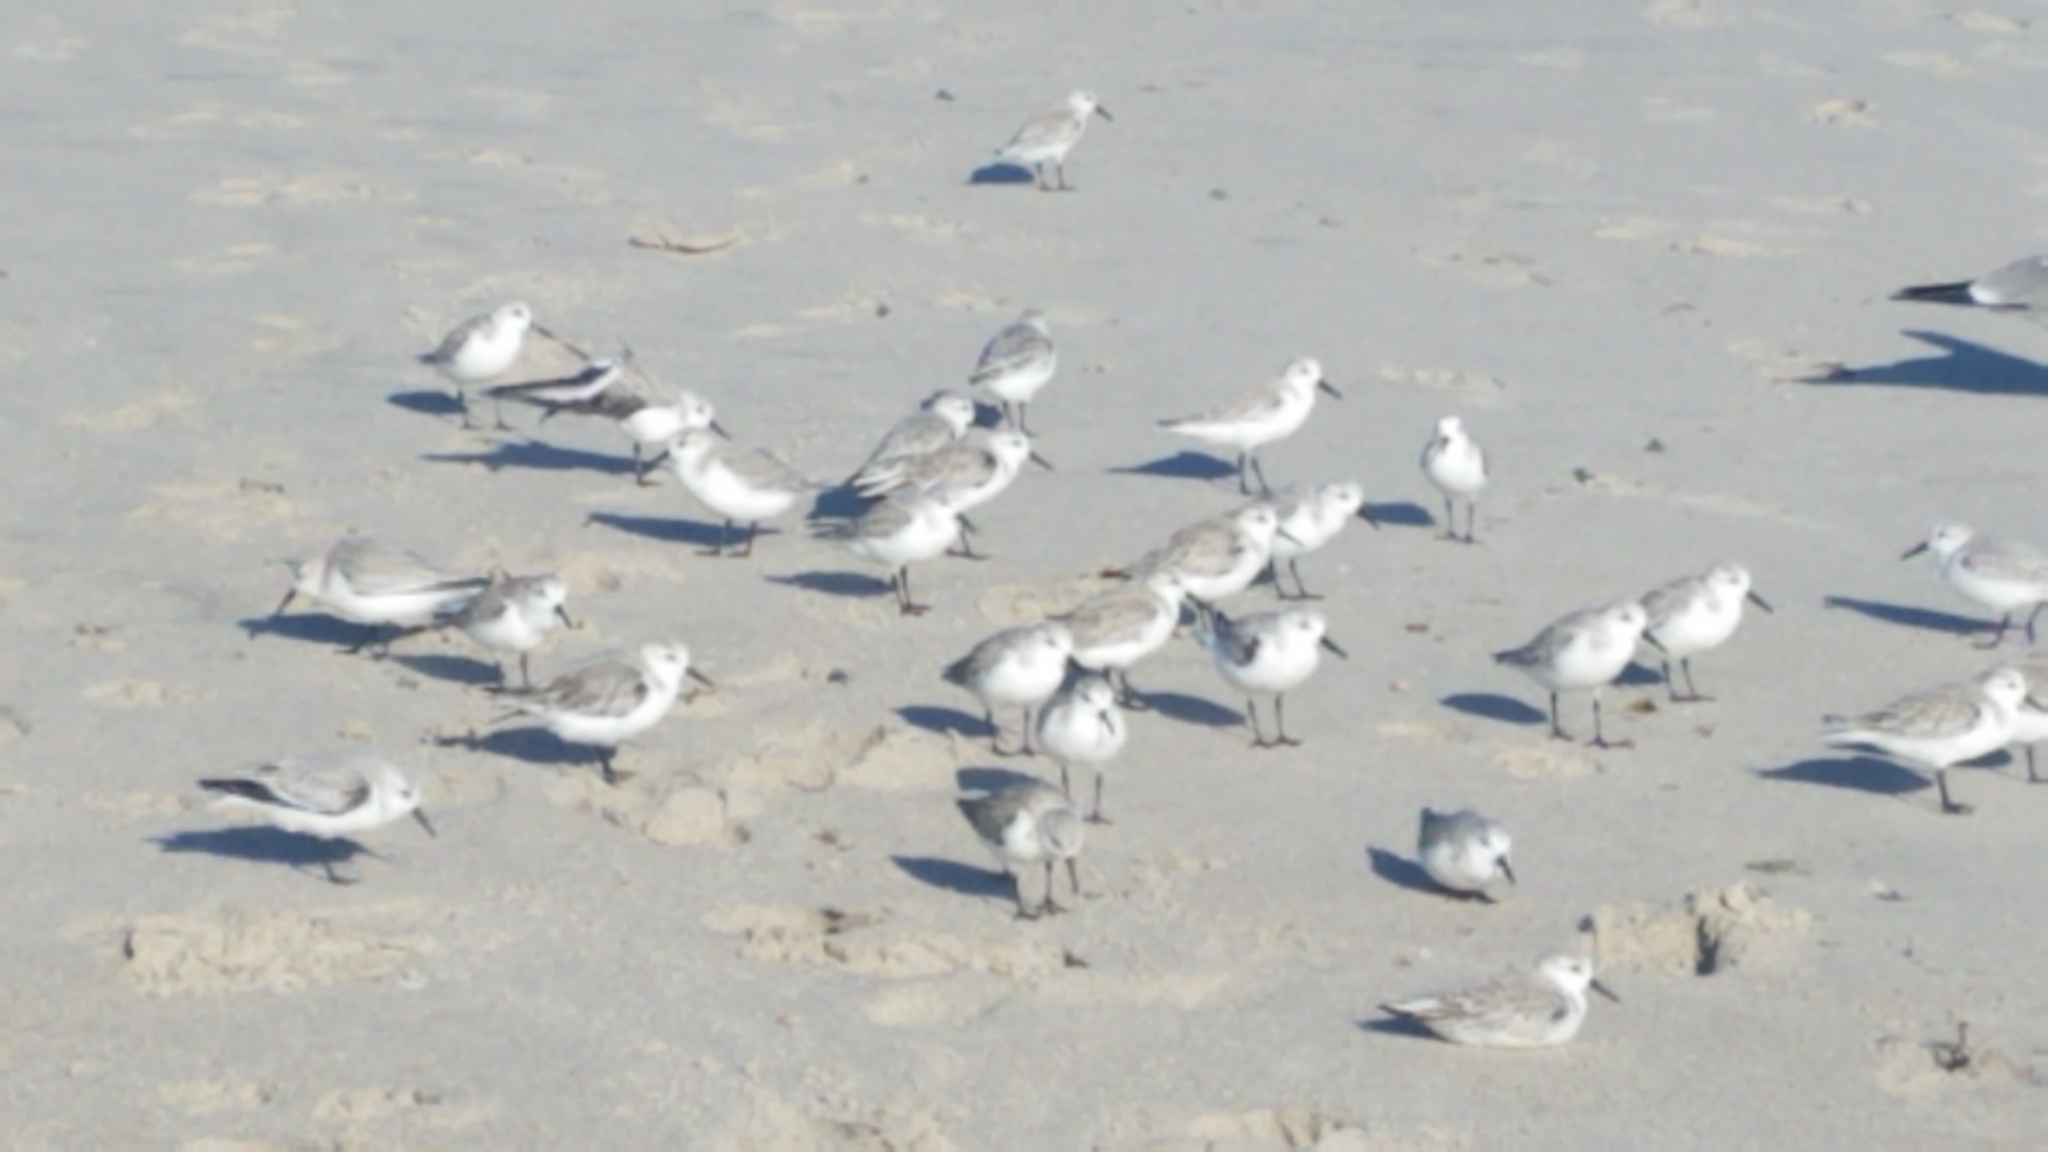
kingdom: Animalia
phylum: Chordata
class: Aves
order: Charadriiformes
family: Scolopacidae
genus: Calidris
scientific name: Calidris alba
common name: Sanderling
